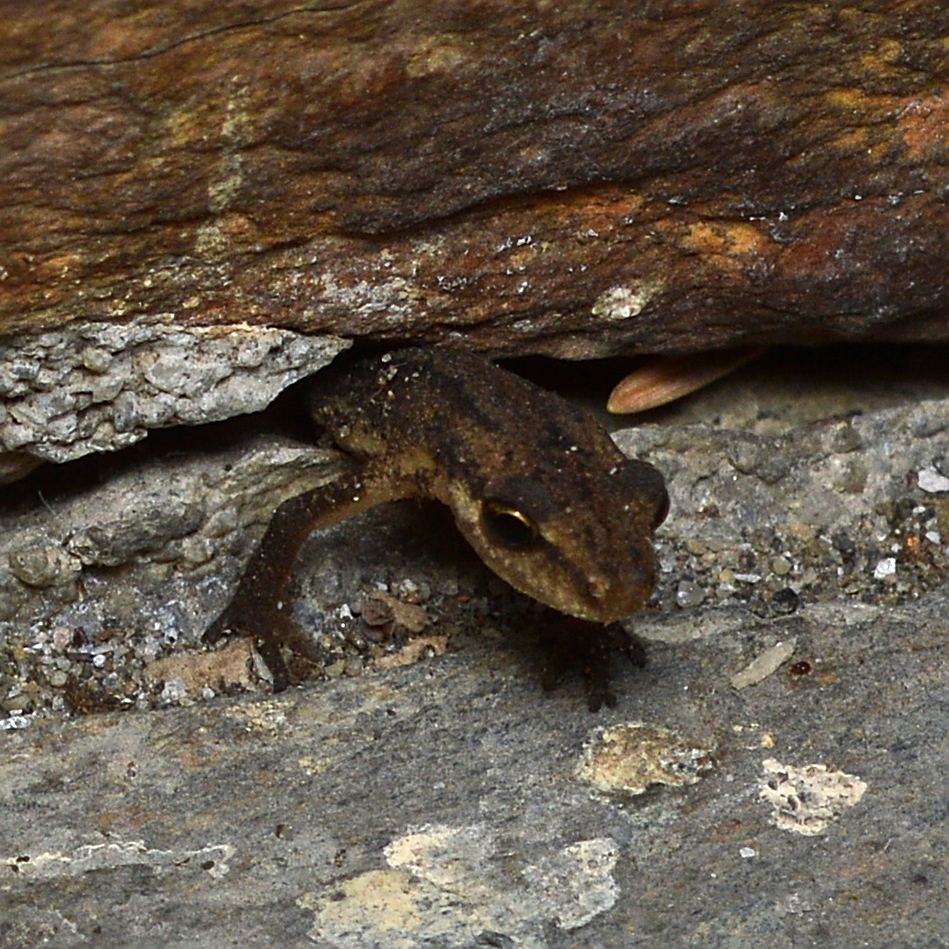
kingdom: Animalia
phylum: Chordata
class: Amphibia
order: Caudata
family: Salamandridae
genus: Lissotriton
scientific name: Lissotriton vulgaris
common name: Smooth newt
